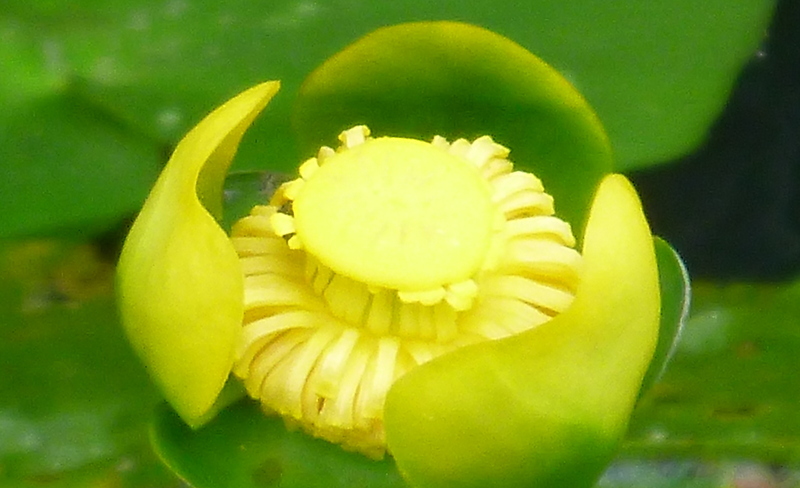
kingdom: Plantae
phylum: Tracheophyta
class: Magnoliopsida
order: Nymphaeales
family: Nymphaeaceae
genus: Nuphar
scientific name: Nuphar advena
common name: Spatter-dock
